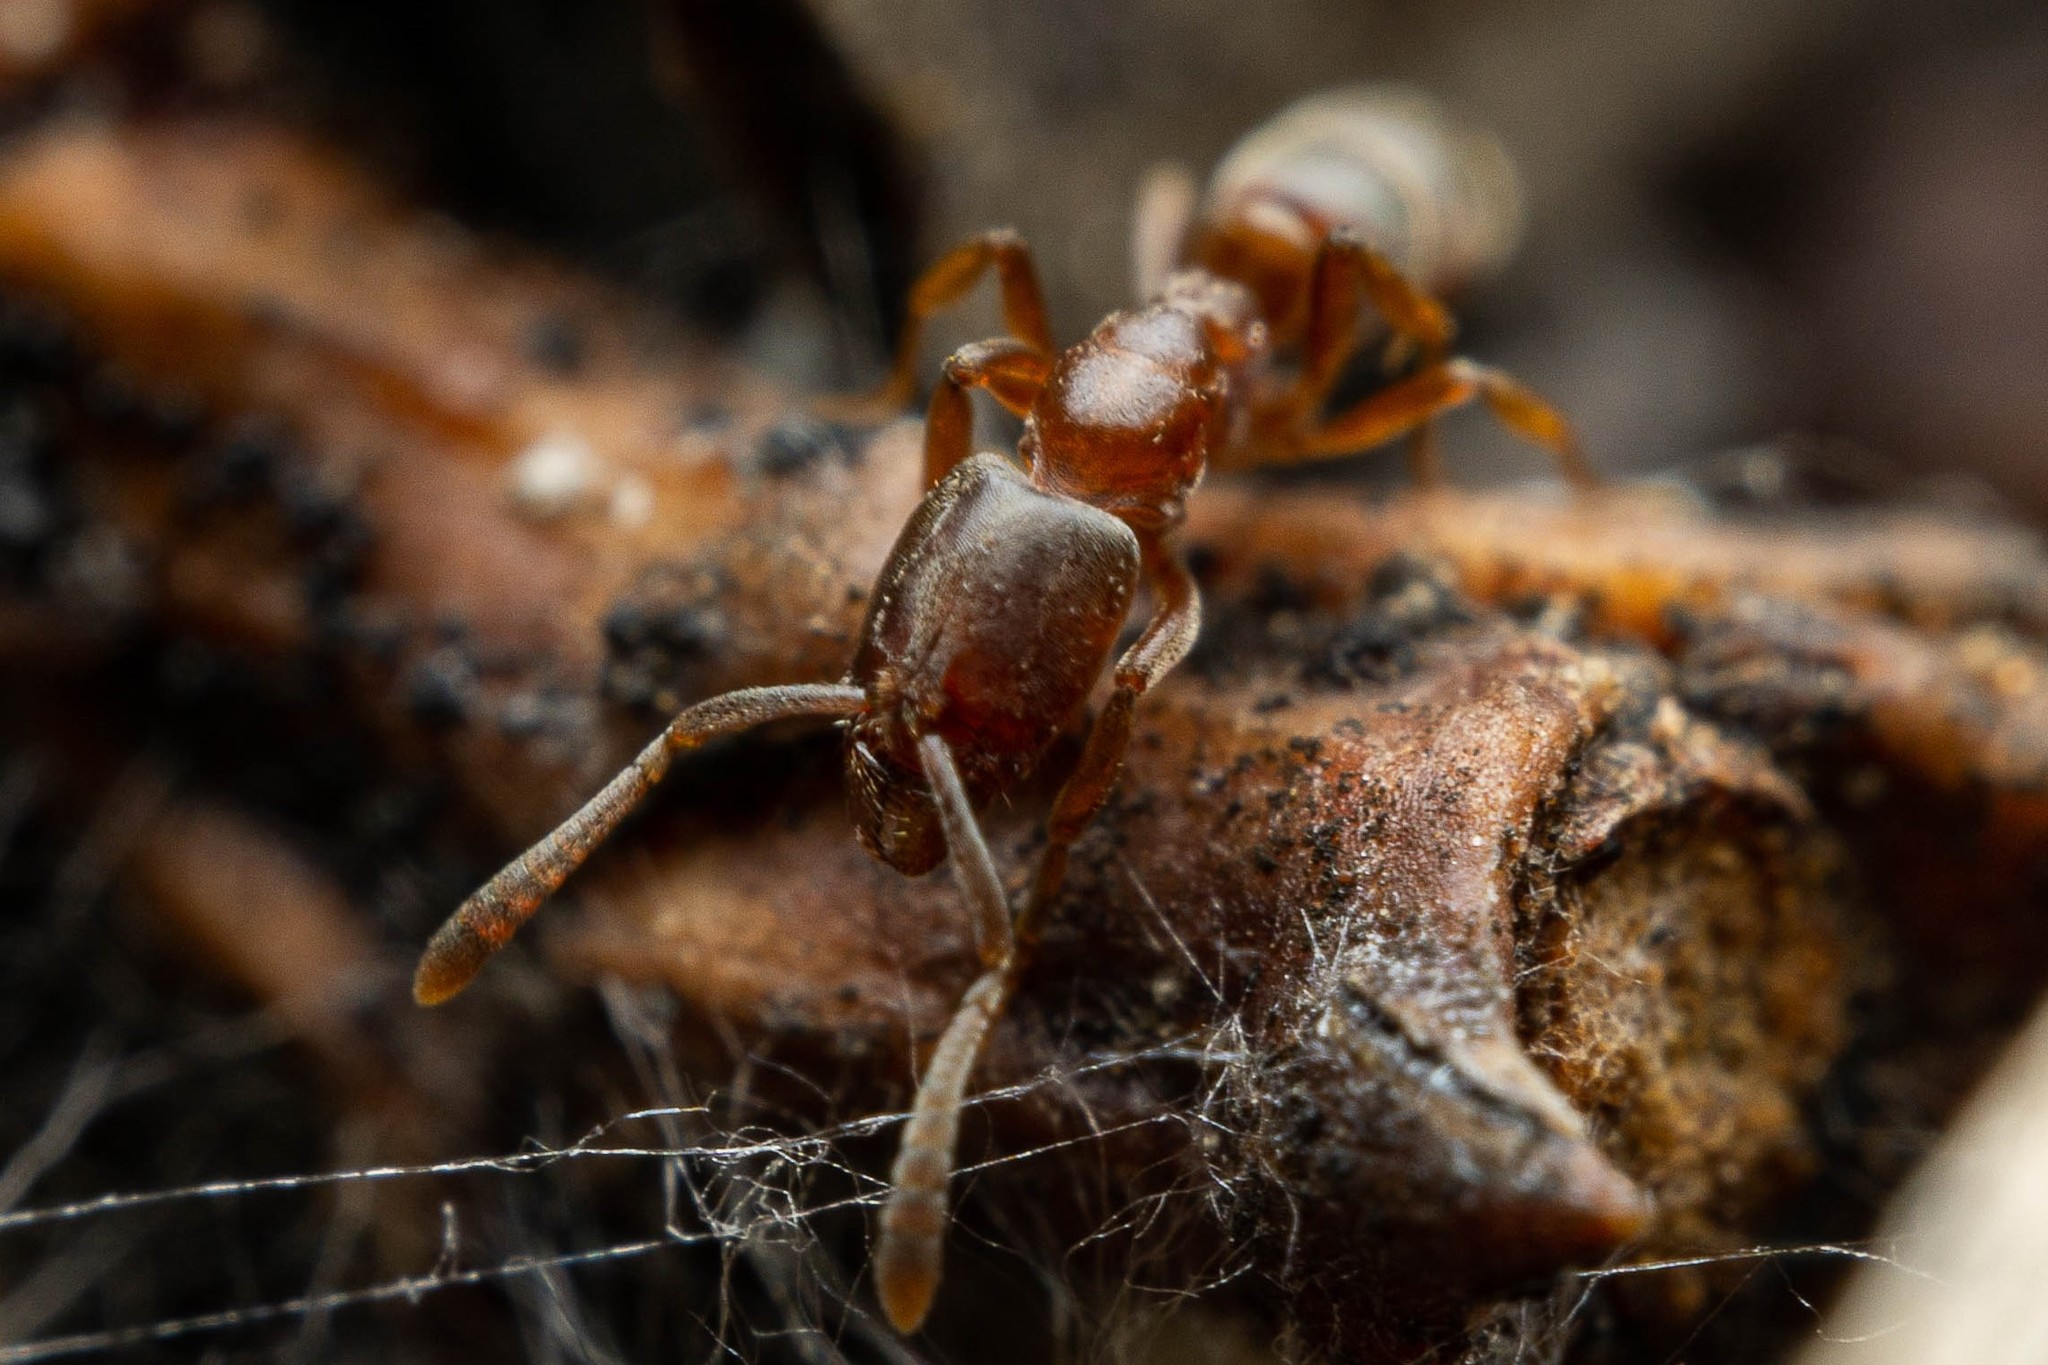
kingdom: Animalia
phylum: Arthropoda
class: Insecta
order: Hymenoptera
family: Formicidae
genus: Hypoponera
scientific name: Hypoponera opacior
